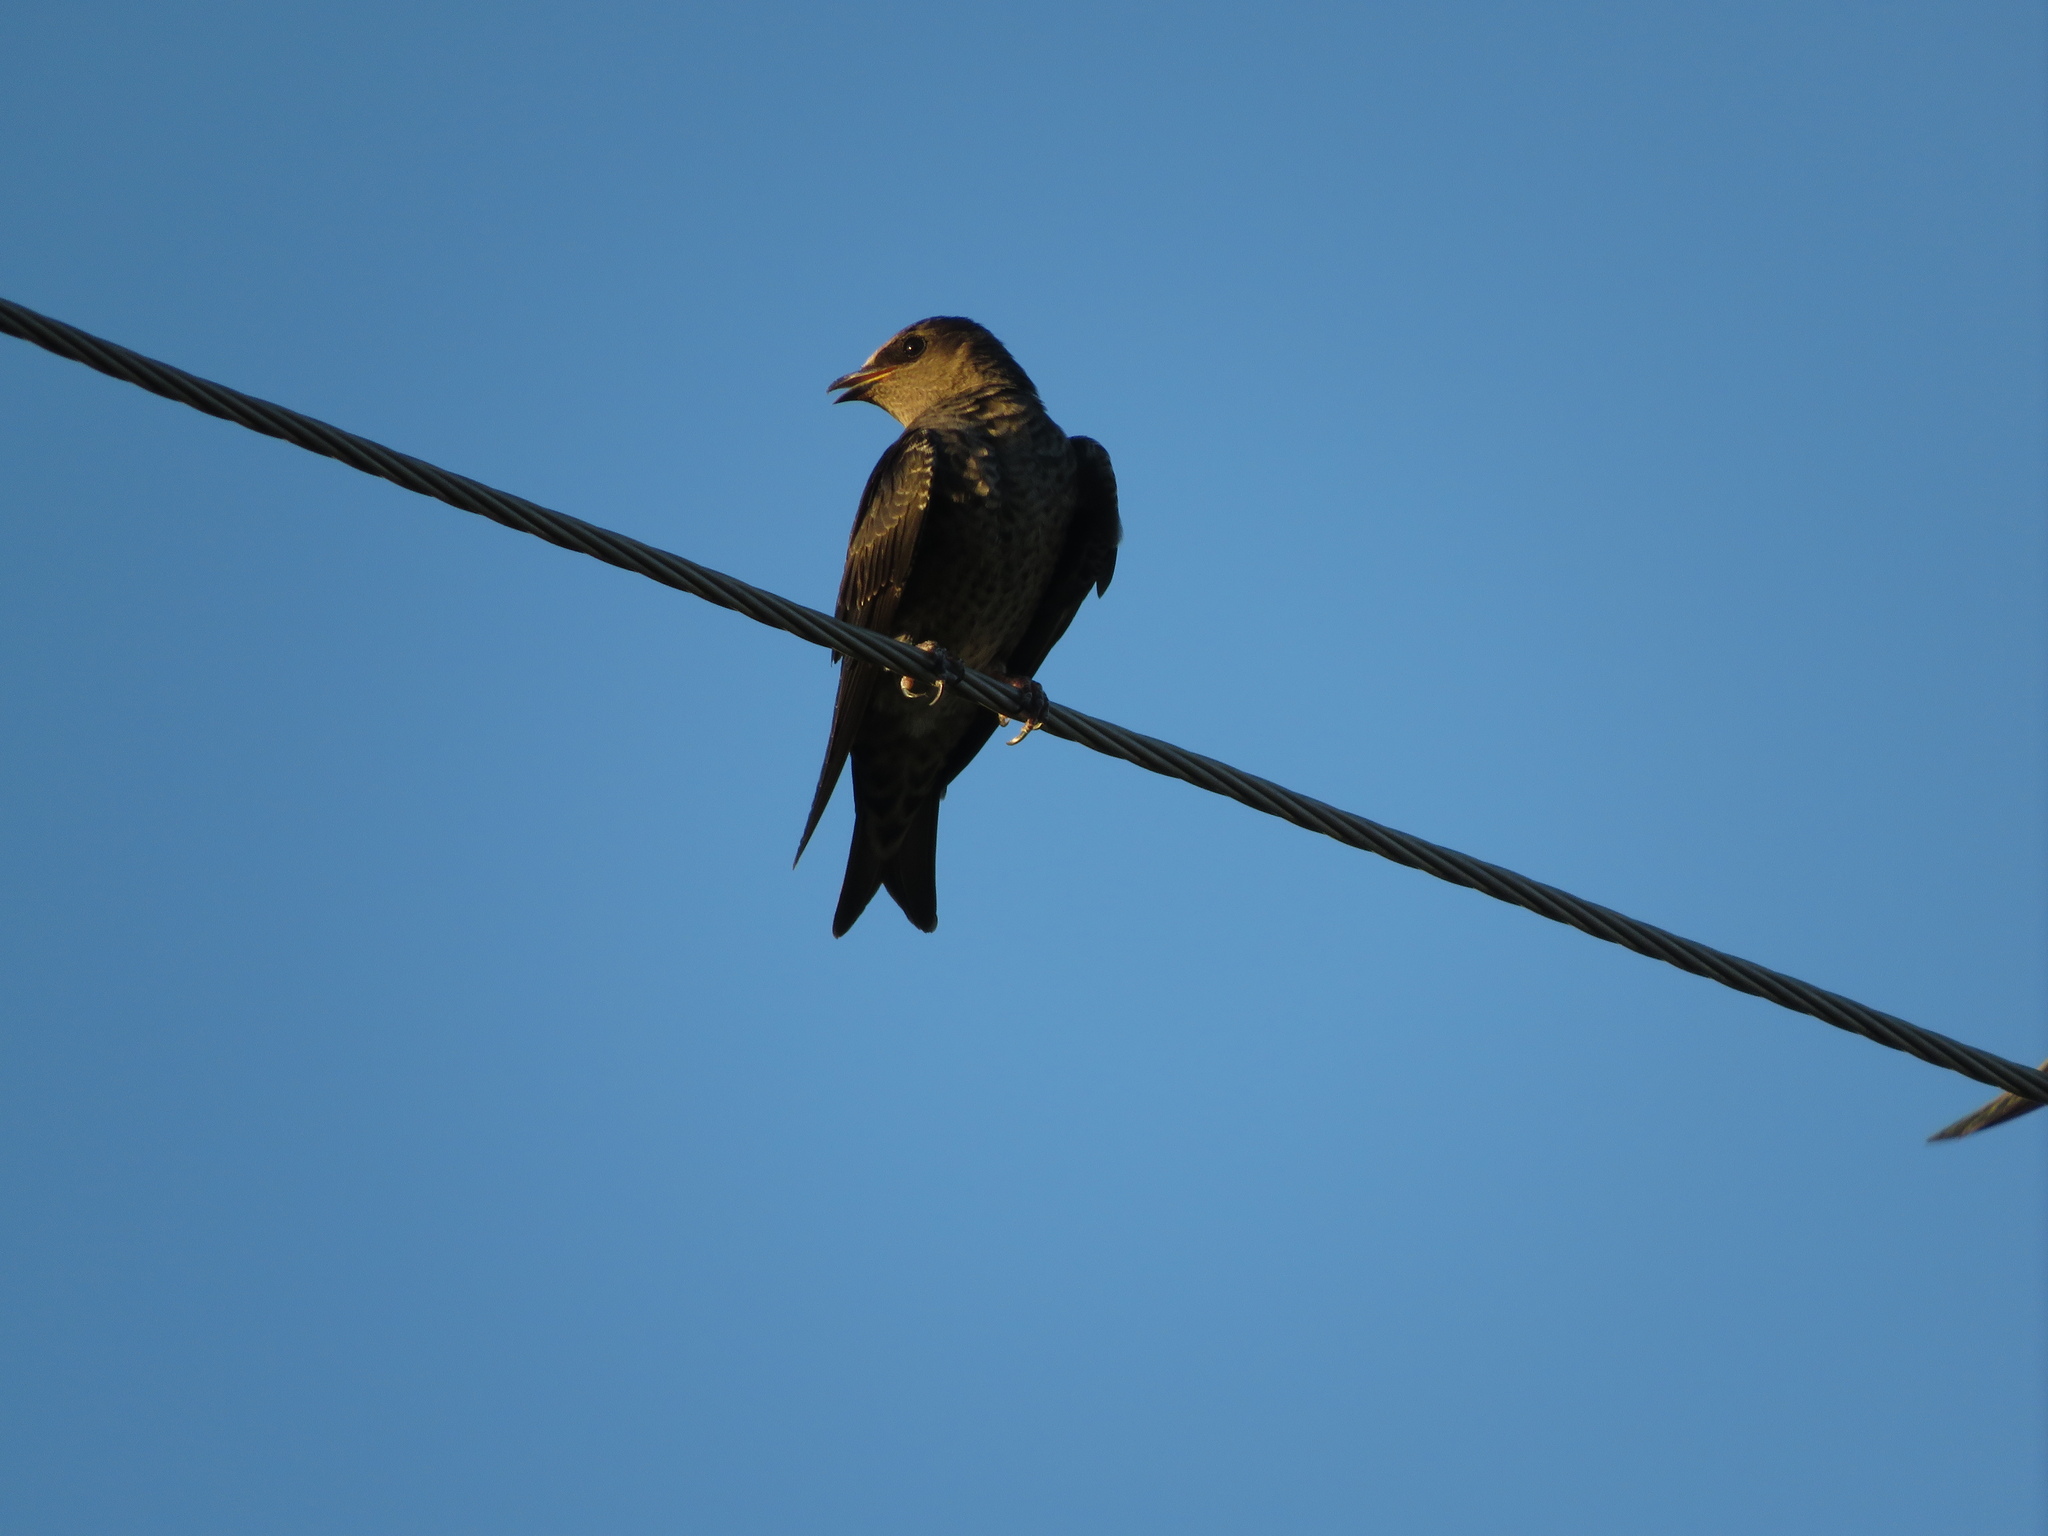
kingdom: Animalia
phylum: Chordata
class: Aves
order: Passeriformes
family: Hirundinidae
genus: Progne
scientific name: Progne elegans
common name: Southern martin
